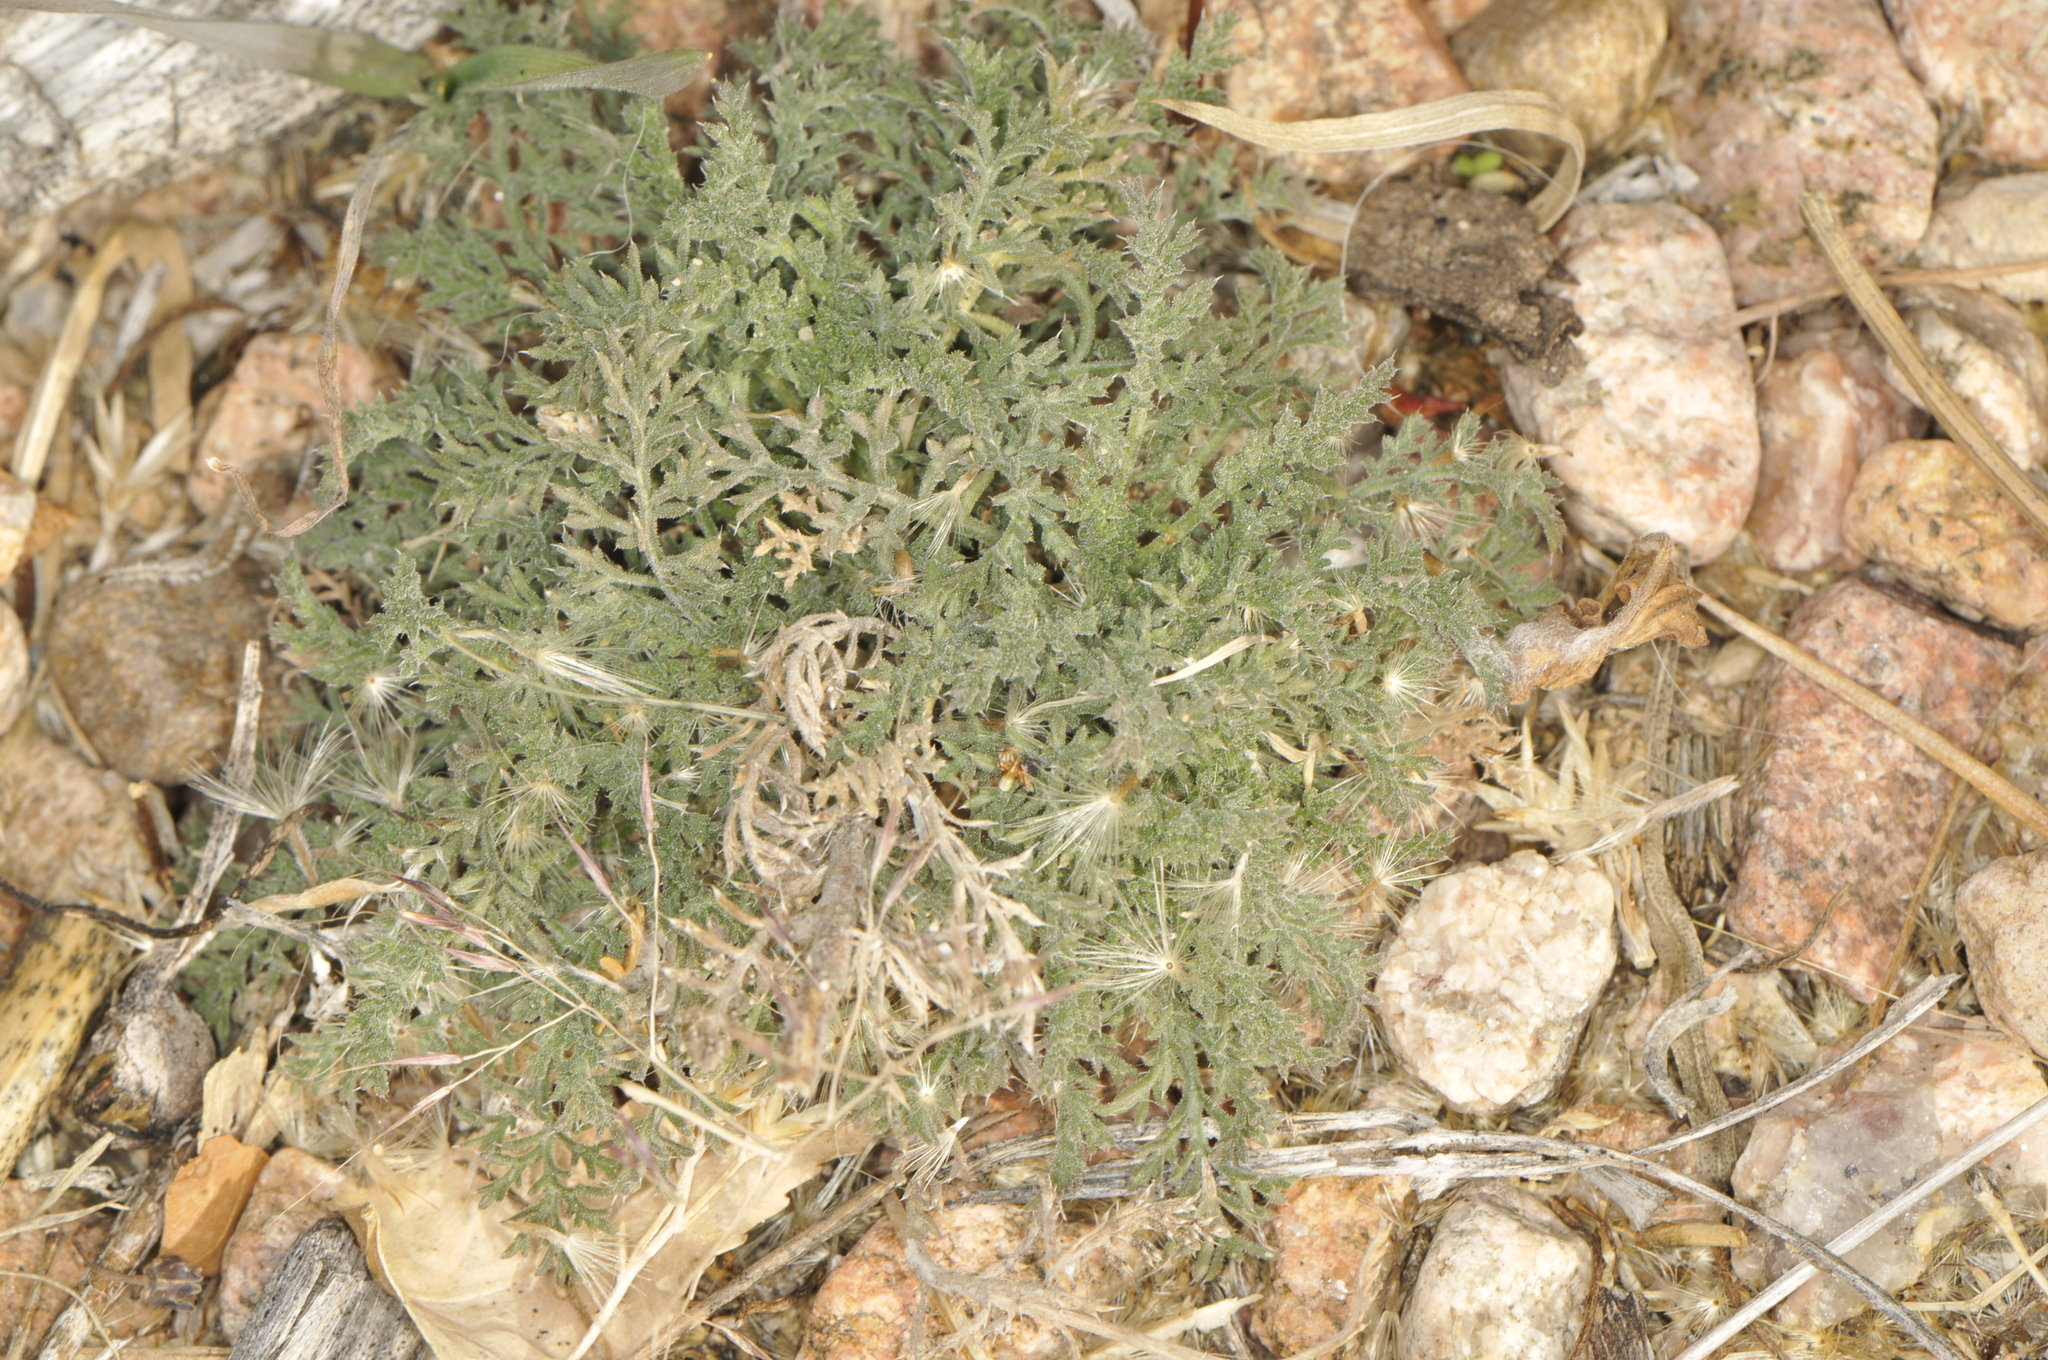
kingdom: Plantae
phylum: Tracheophyta
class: Magnoliopsida
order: Asterales
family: Asteraceae
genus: Xanthisma
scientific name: Xanthisma spinulosum
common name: Spiny goldenweed
